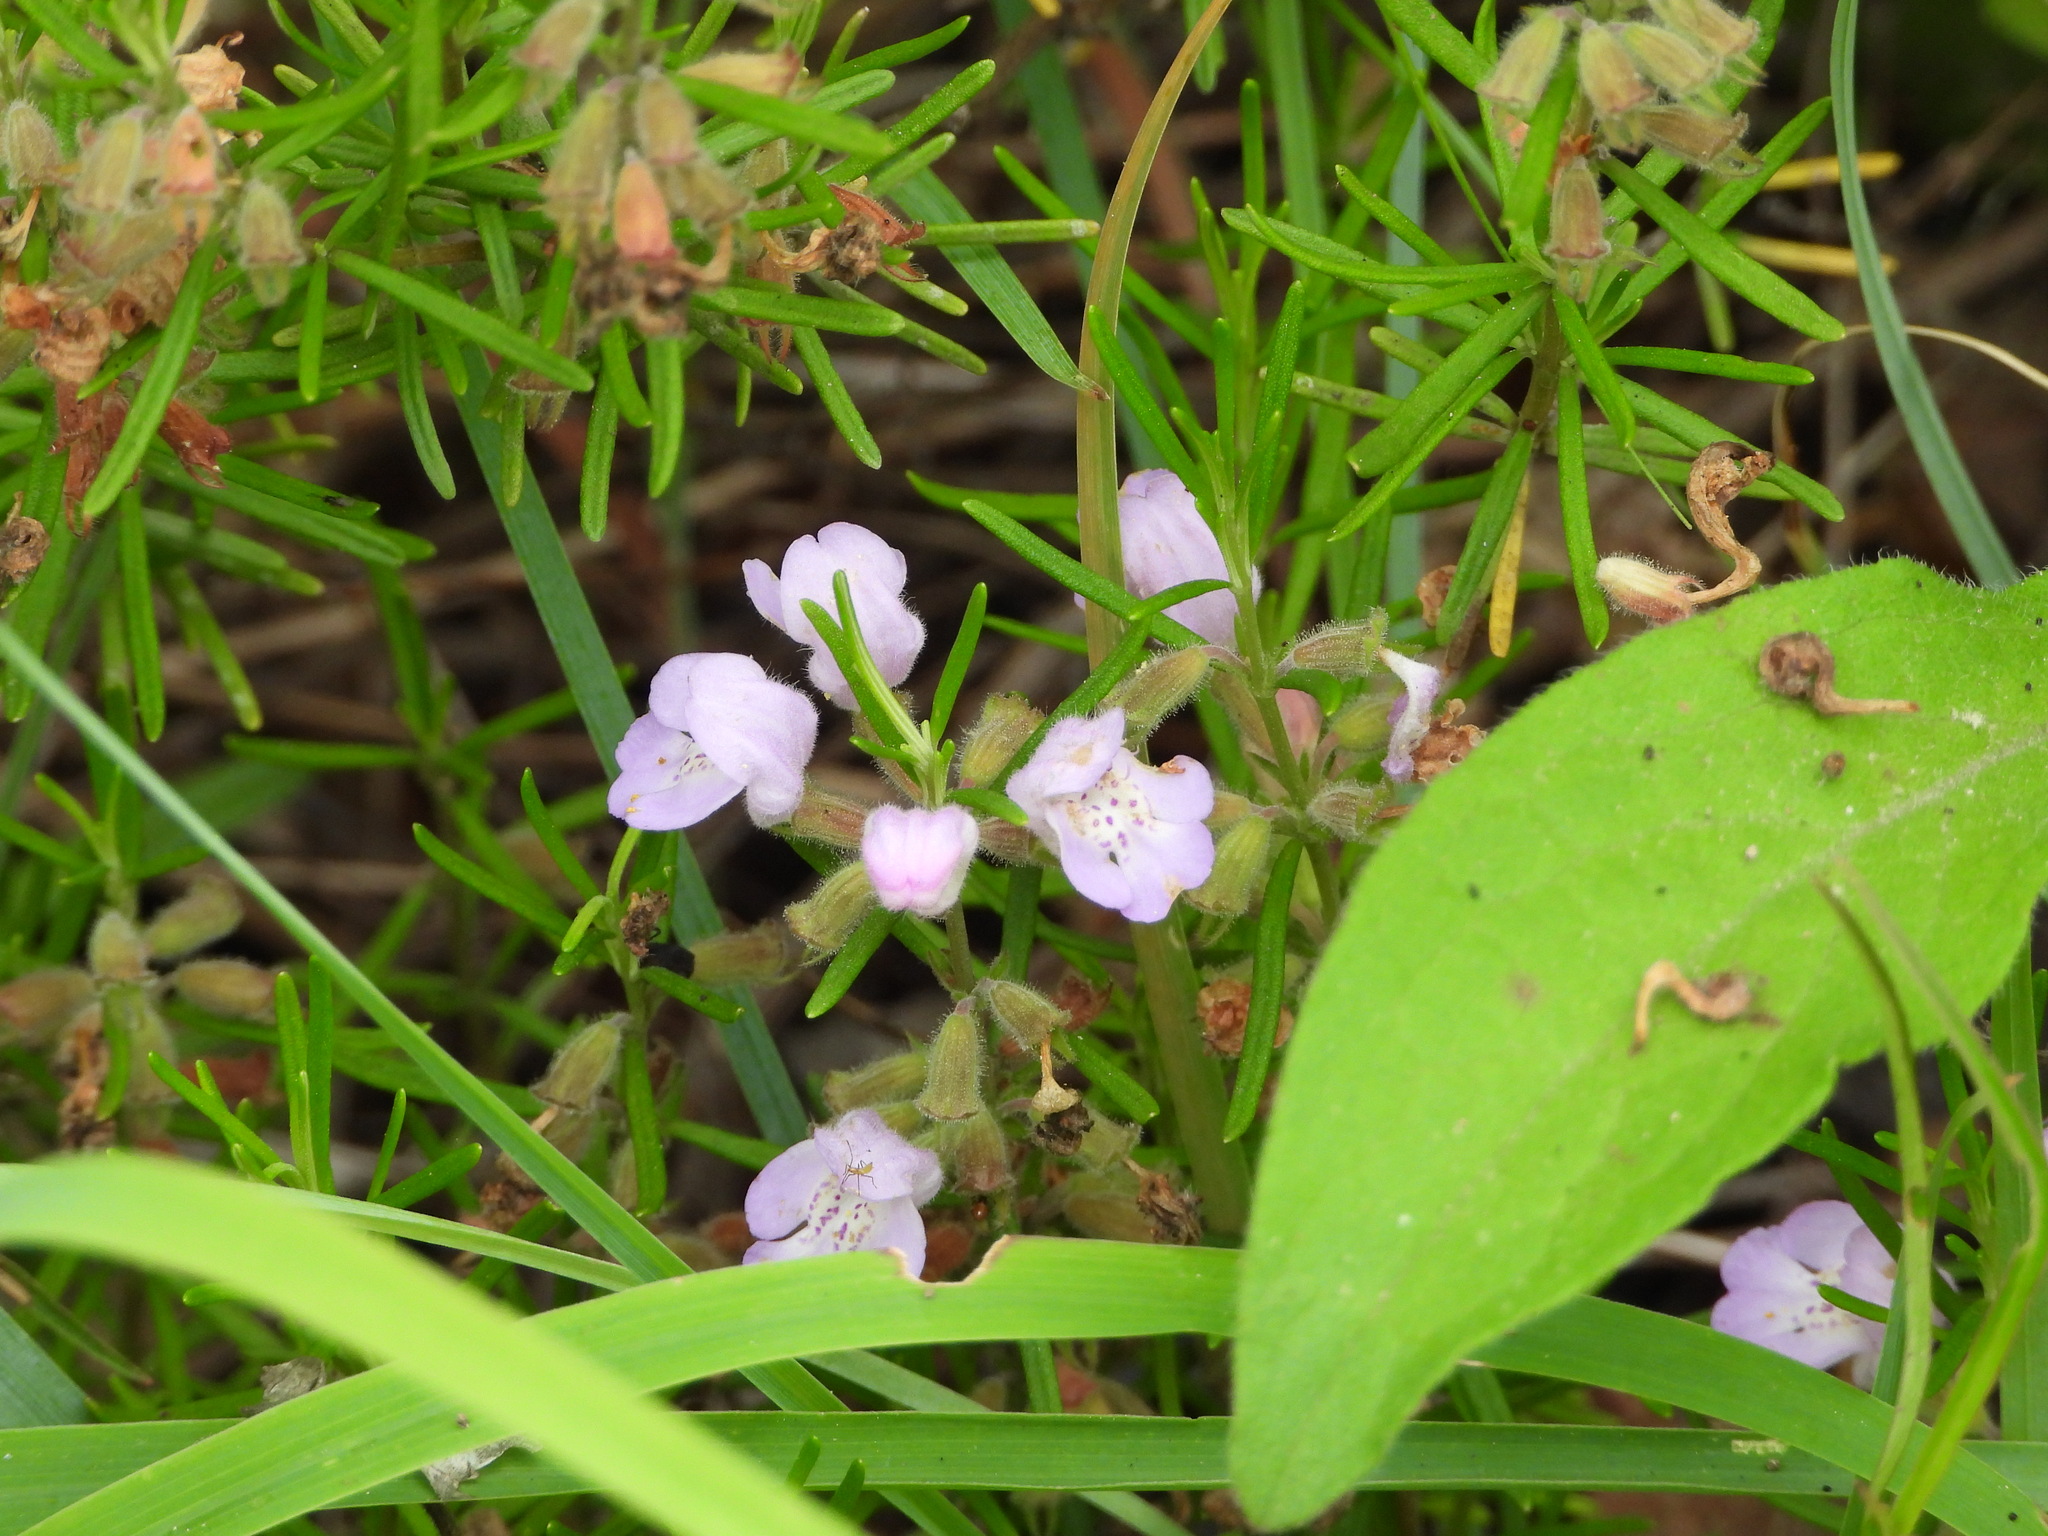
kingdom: Plantae
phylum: Tracheophyta
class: Magnoliopsida
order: Lamiales
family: Lamiaceae
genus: Conradina
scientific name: Conradina verticillata
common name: Cumberland-rosemary
